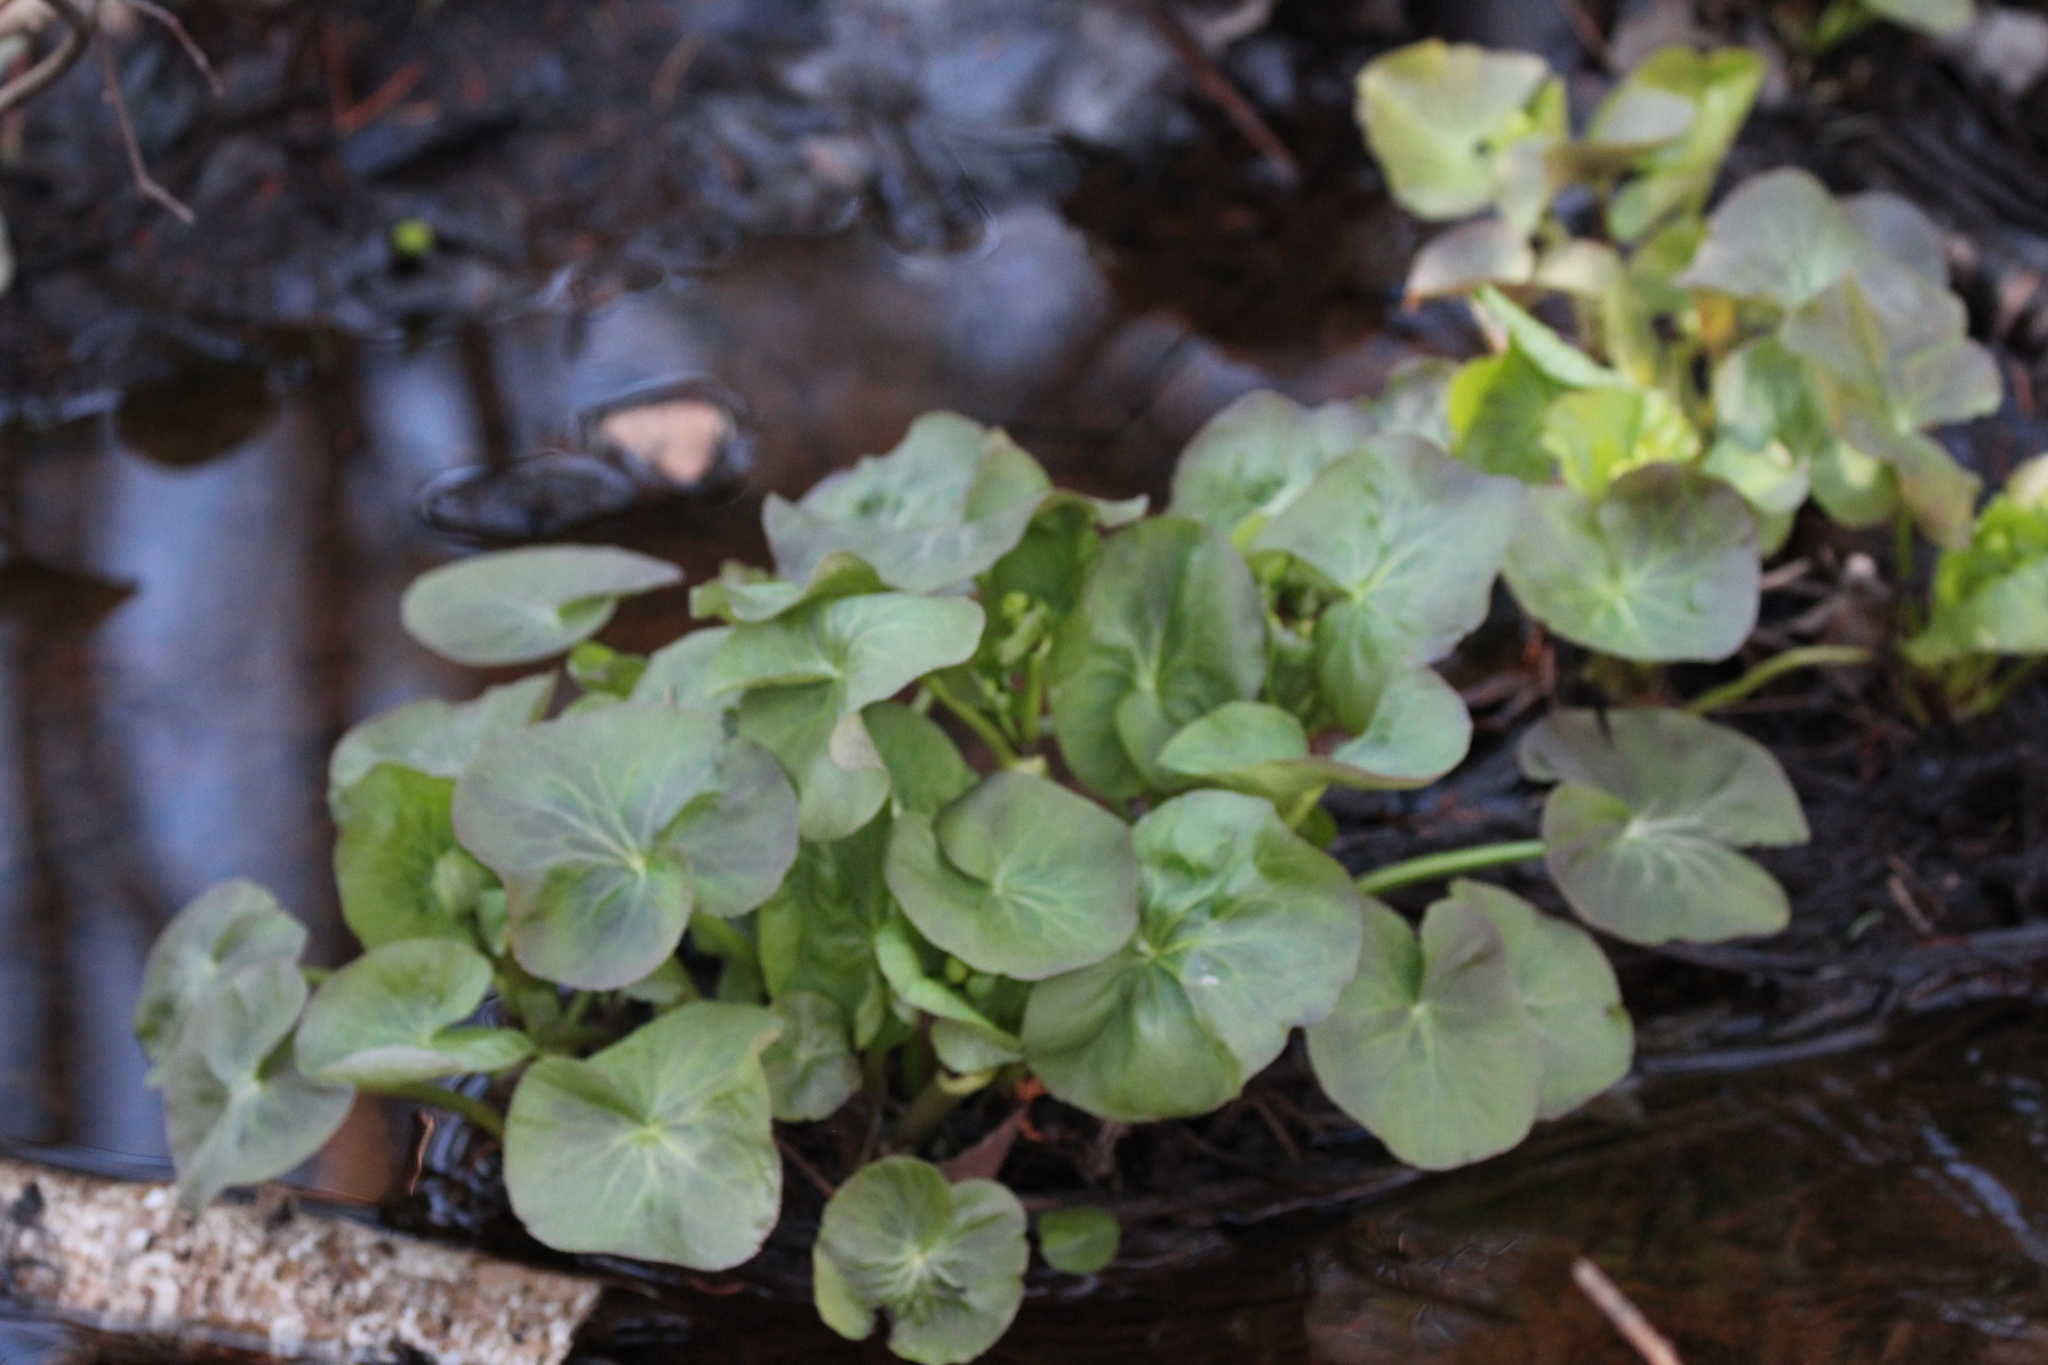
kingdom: Plantae
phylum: Tracheophyta
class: Magnoliopsida
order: Ranunculales
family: Ranunculaceae
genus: Caltha
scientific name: Caltha palustris
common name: Marsh marigold
